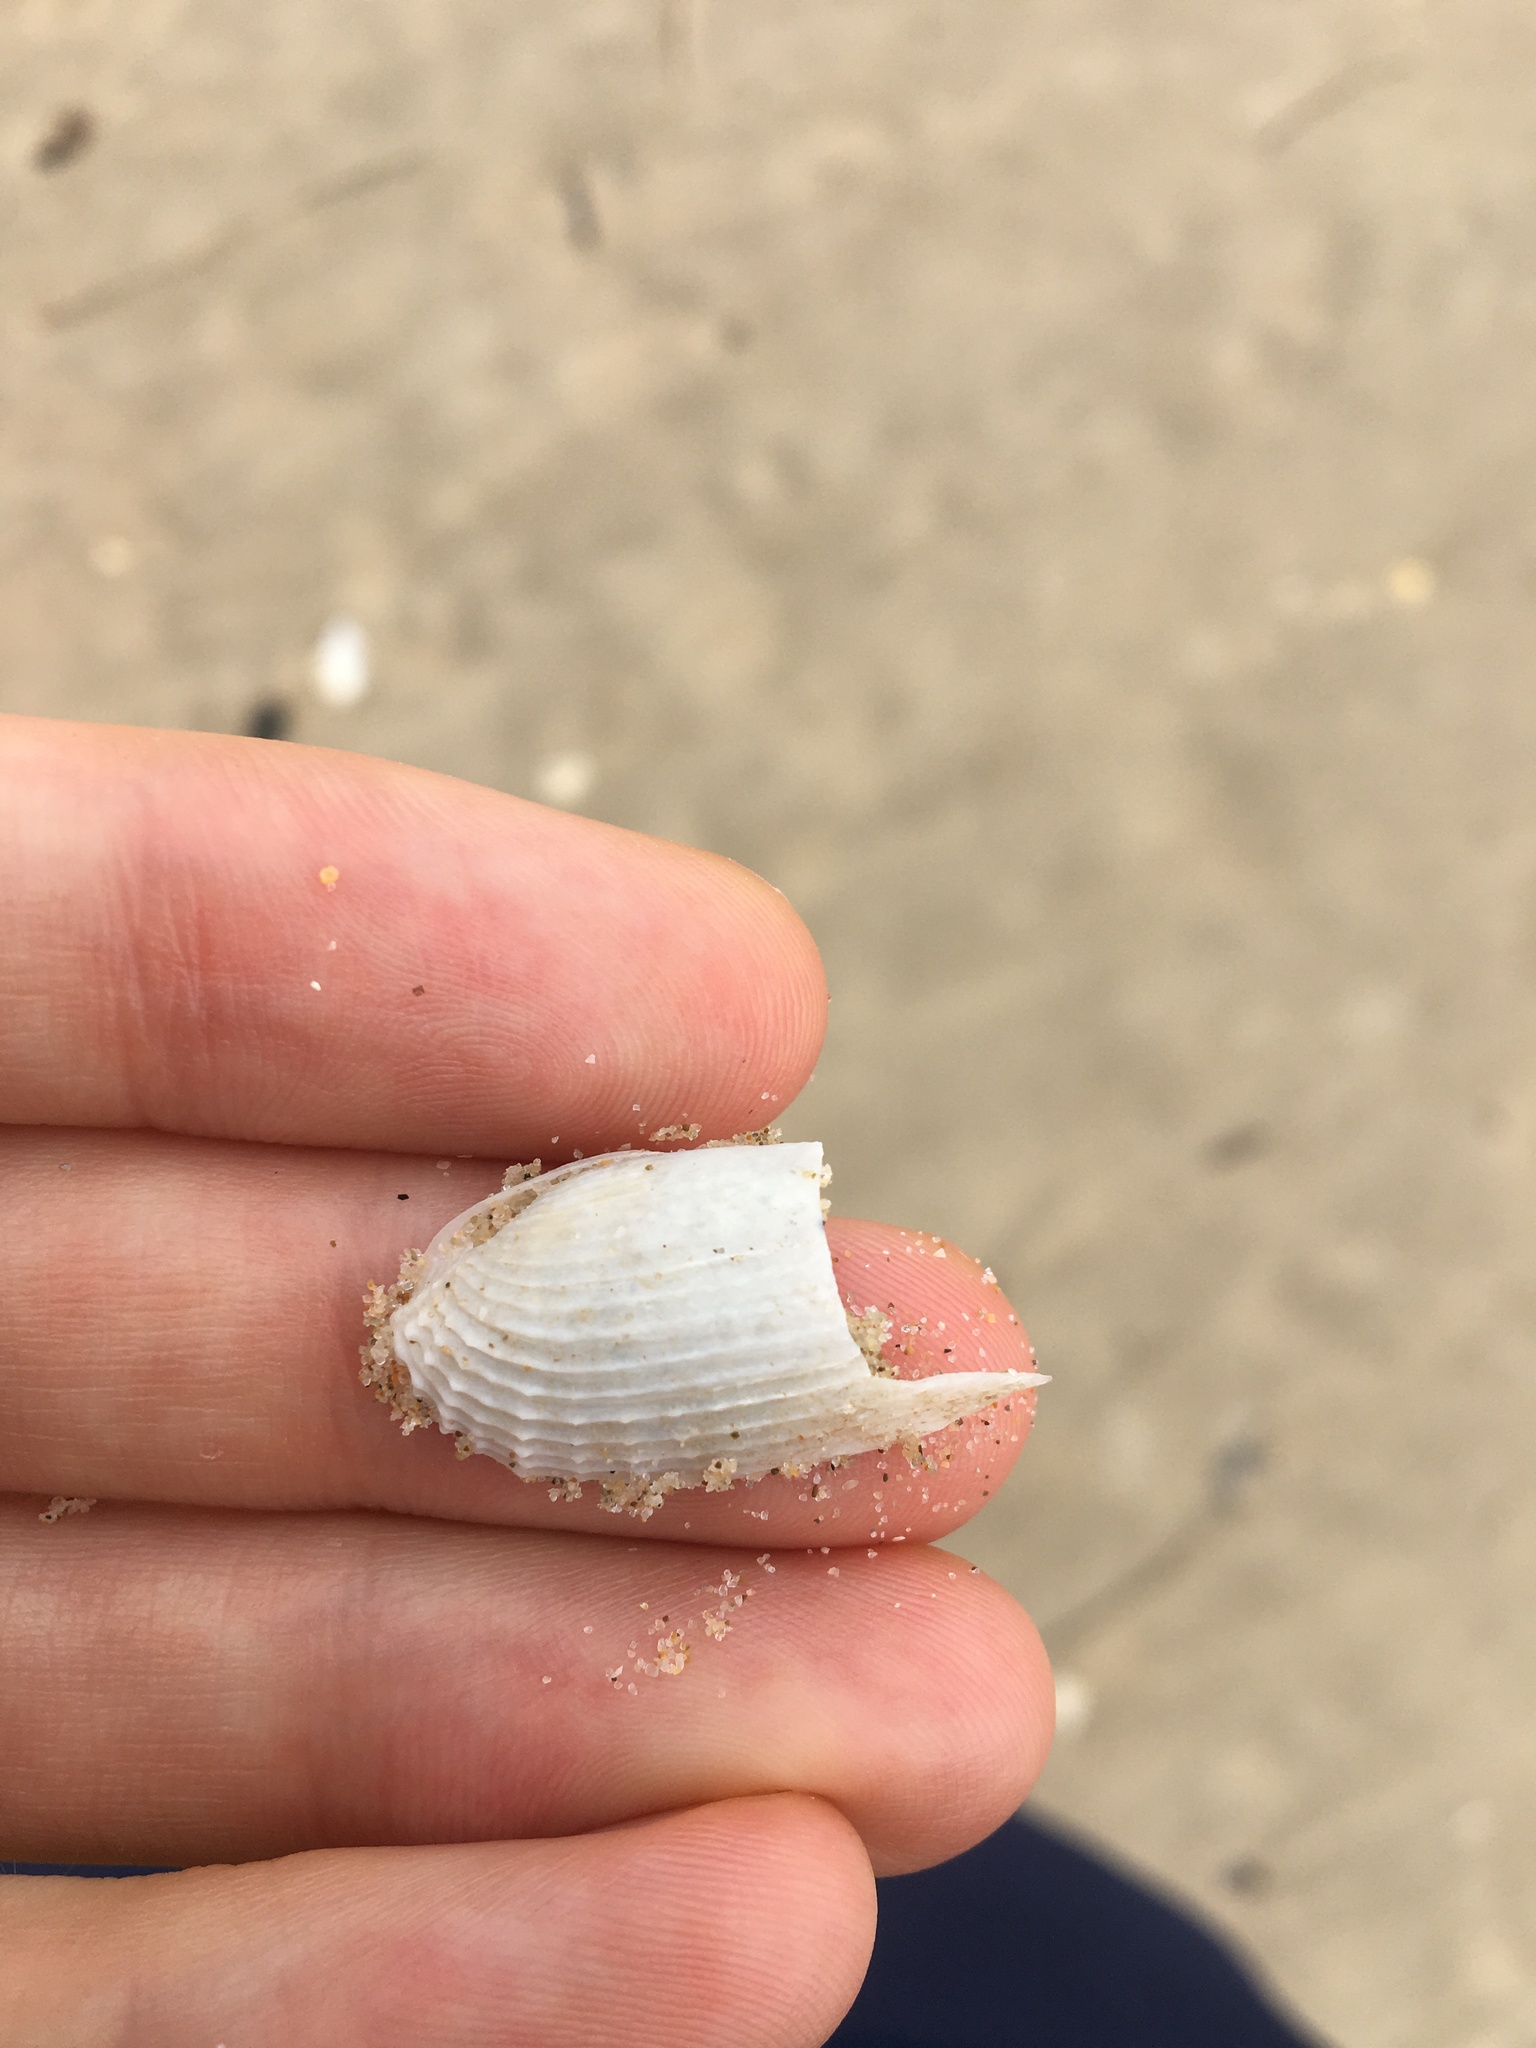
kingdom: Animalia
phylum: Mollusca
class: Bivalvia
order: Myida
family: Pholadidae
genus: Barnea
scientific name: Barnea australasiae
